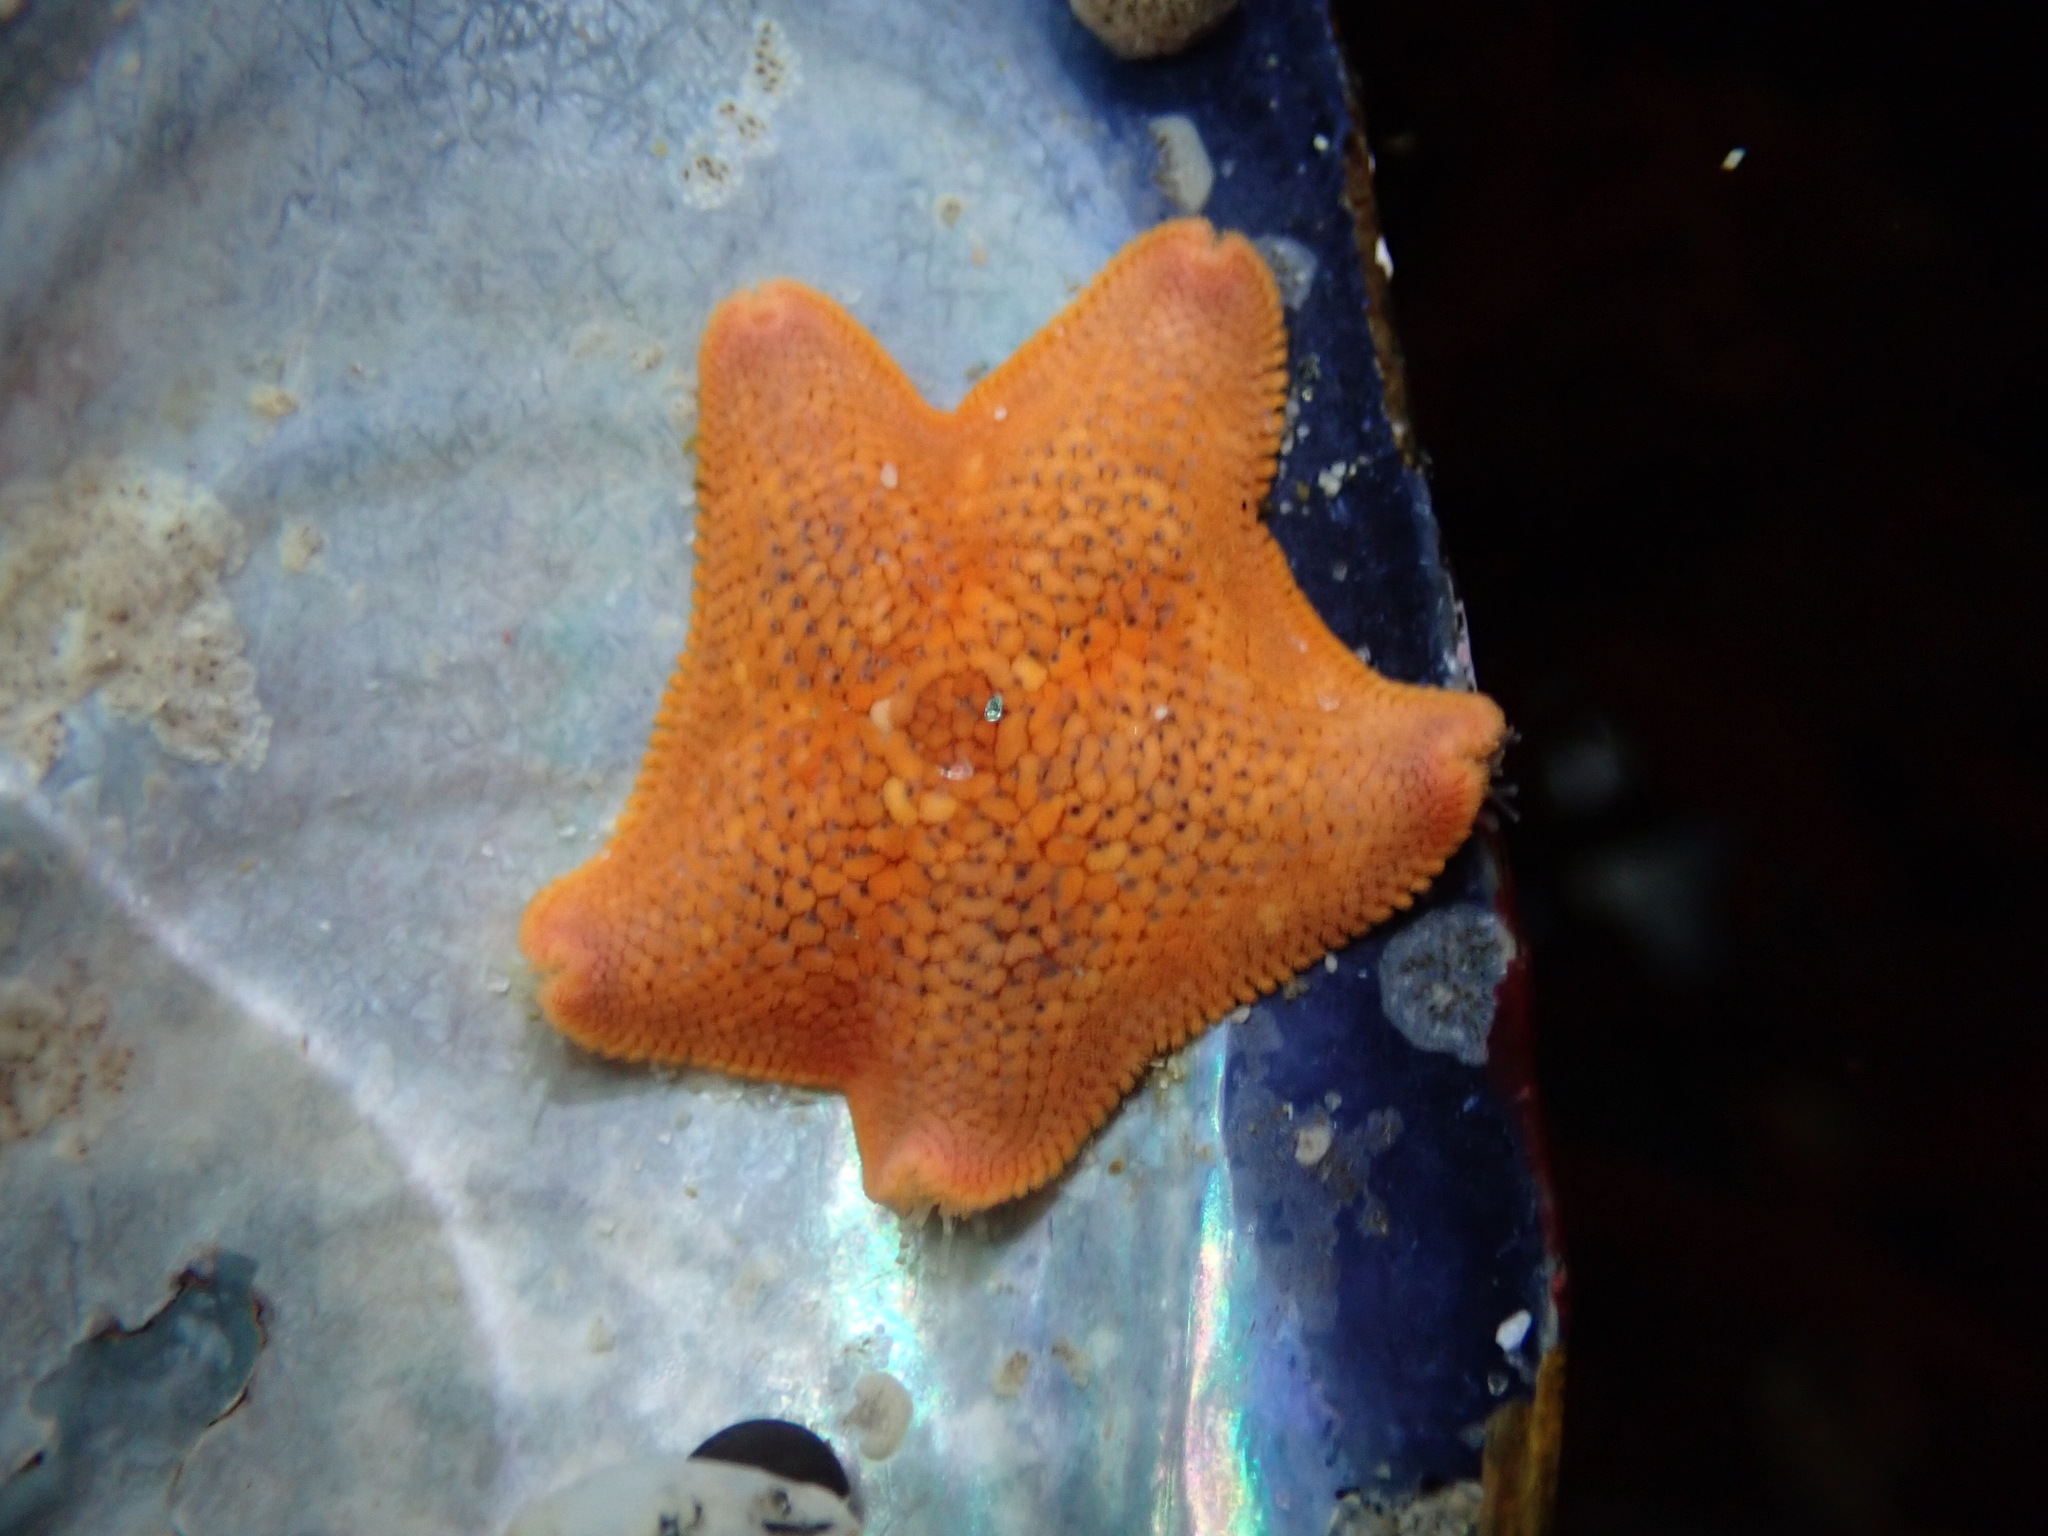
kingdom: Animalia
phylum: Echinodermata
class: Asteroidea
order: Valvatida
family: Asterinidae
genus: Patiria
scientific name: Patiria miniata
